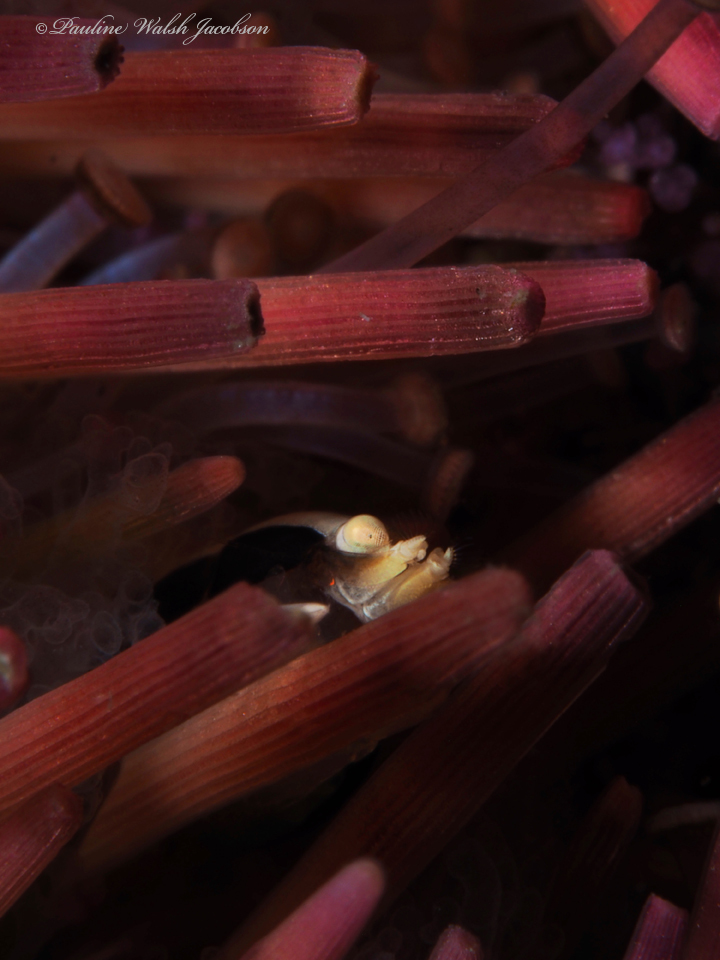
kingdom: Animalia
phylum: Arthropoda
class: Malacostraca
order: Decapoda
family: Palaemonidae
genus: Gnathophylloides
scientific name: Gnathophylloides mineri
